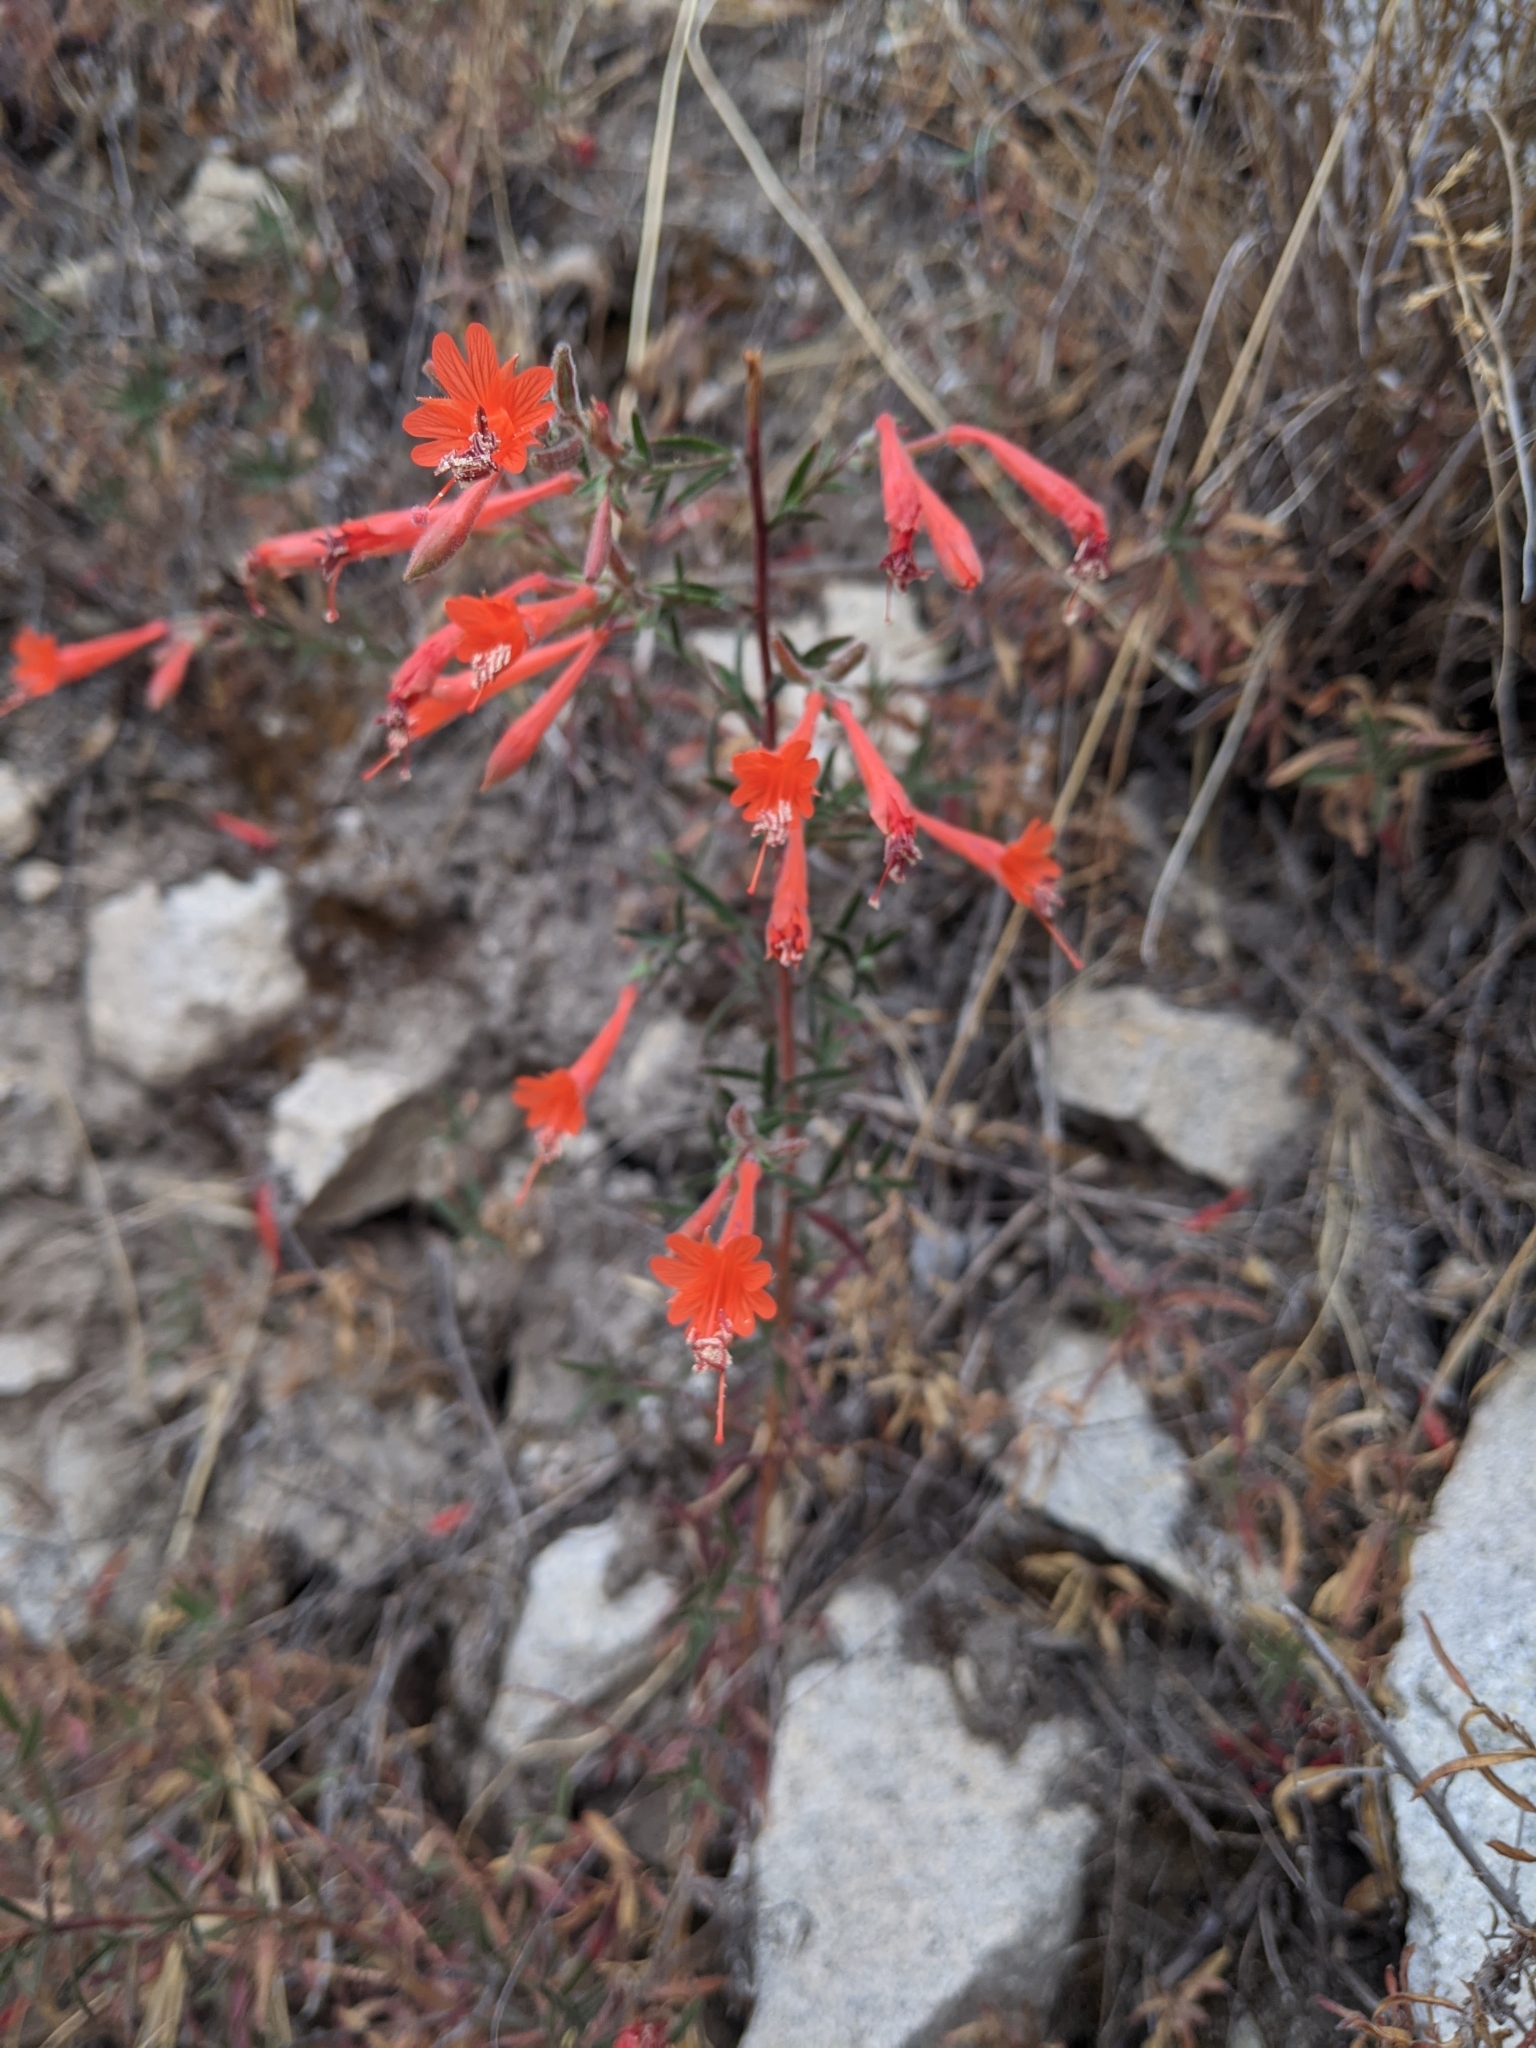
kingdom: Plantae
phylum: Tracheophyta
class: Magnoliopsida
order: Myrtales
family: Onagraceae
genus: Epilobium
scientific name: Epilobium canum
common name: California-fuchsia
